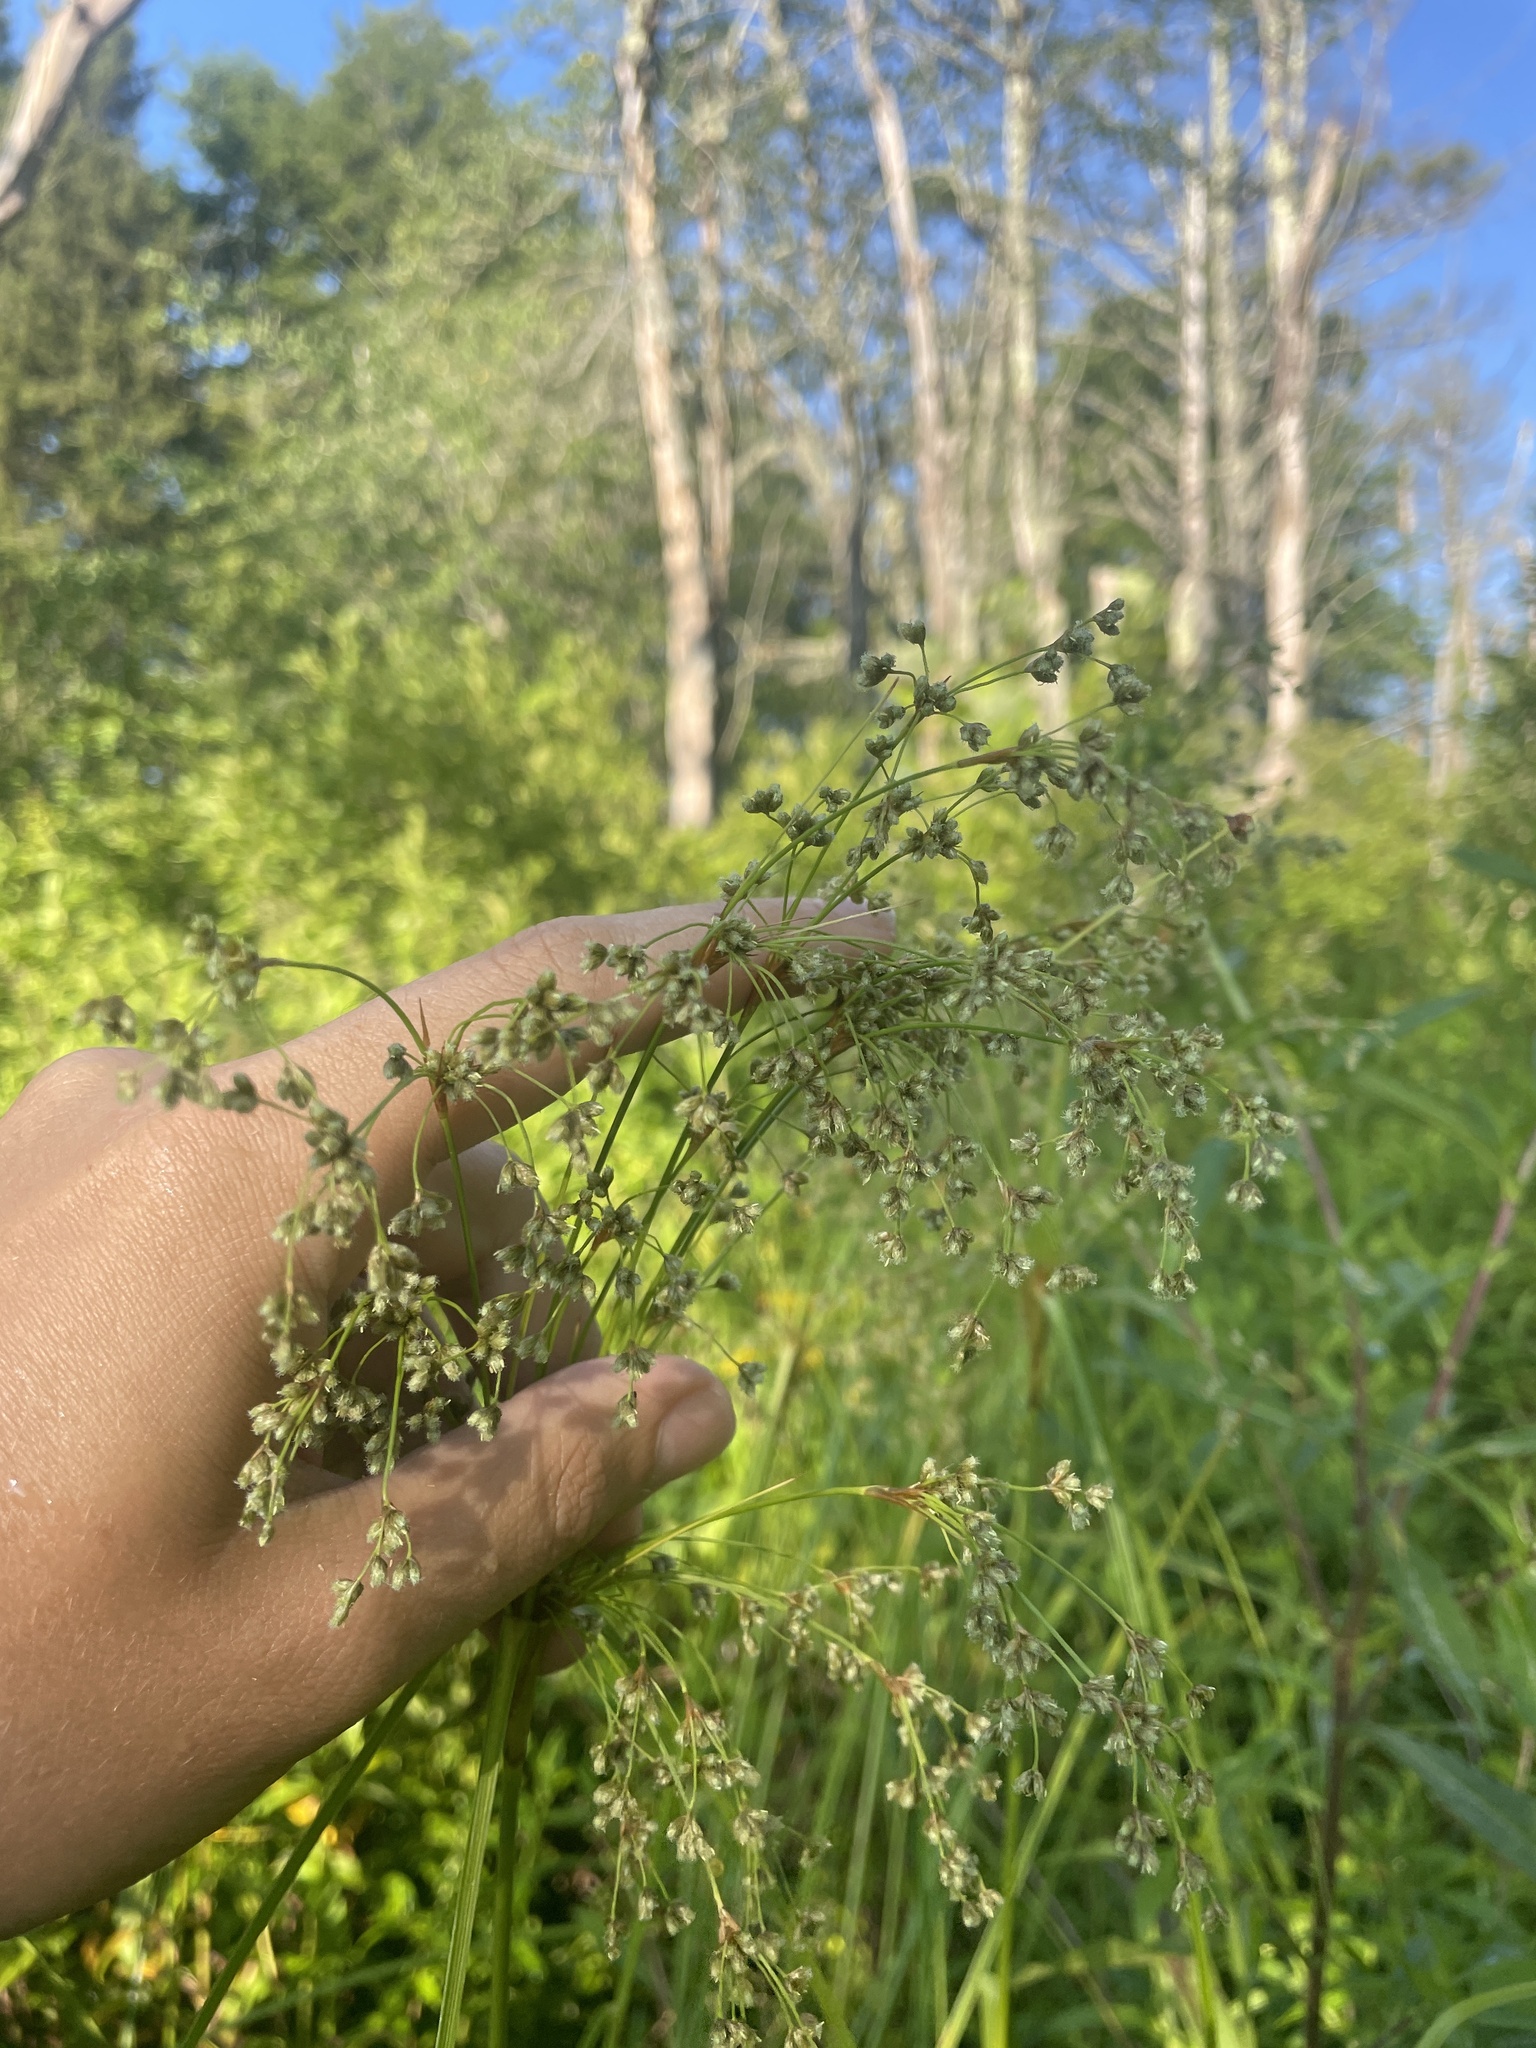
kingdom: Plantae
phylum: Tracheophyta
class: Liliopsida
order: Poales
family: Cyperaceae
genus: Scirpus
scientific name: Scirpus cyperinus
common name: Black-sheathed bulrush
